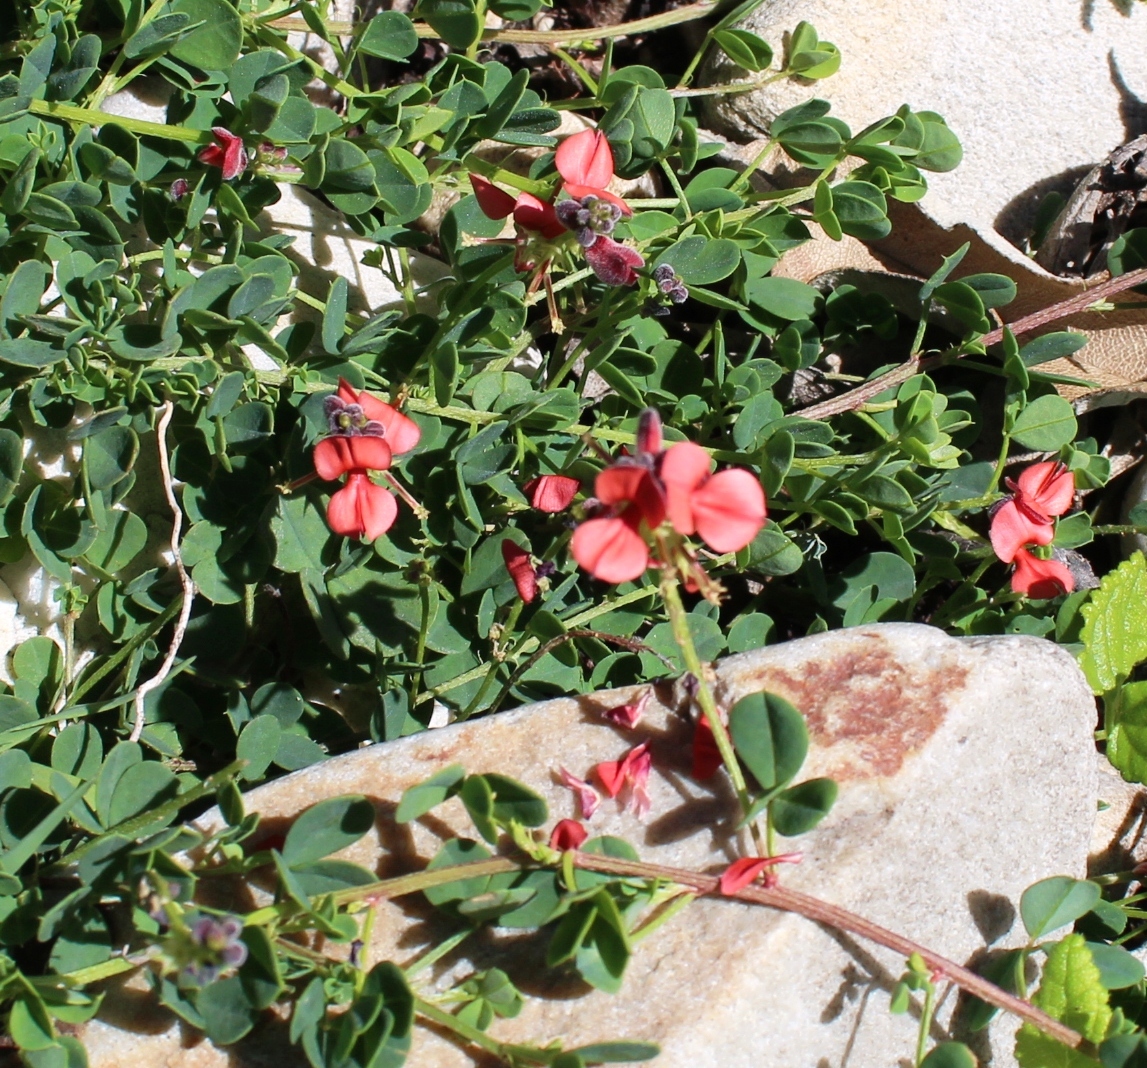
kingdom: Plantae
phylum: Tracheophyta
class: Magnoliopsida
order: Fabales
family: Fabaceae
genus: Indigofera
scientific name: Indigofera porrecta
